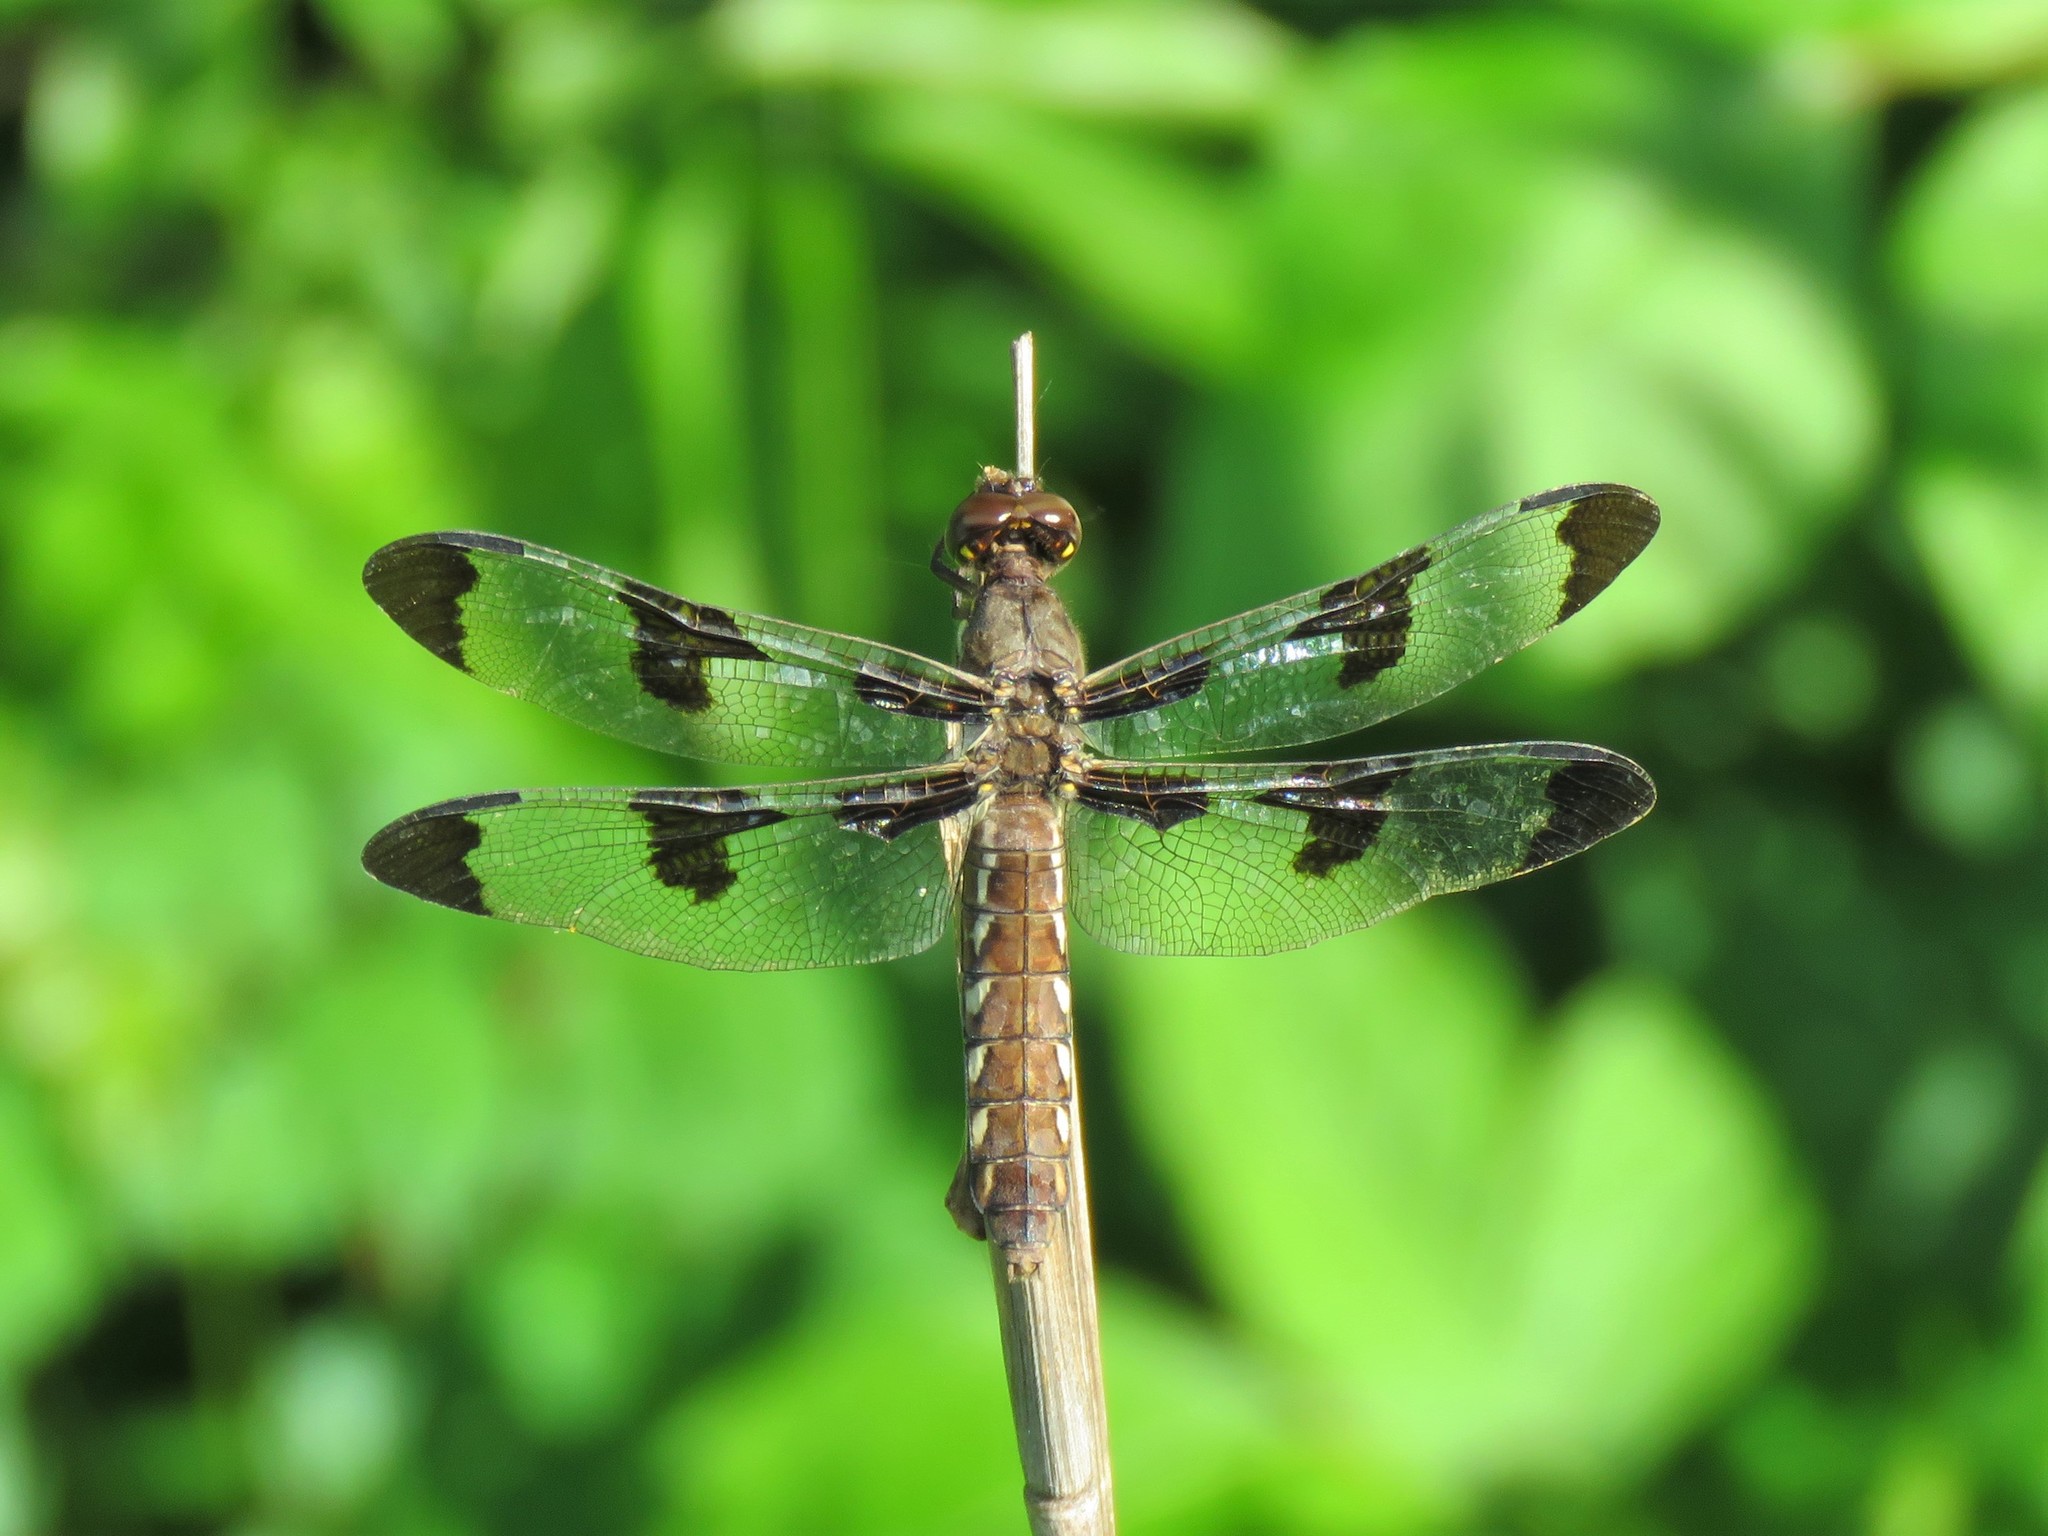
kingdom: Animalia
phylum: Arthropoda
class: Insecta
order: Odonata
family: Libellulidae
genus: Plathemis
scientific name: Plathemis lydia
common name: Common whitetail
